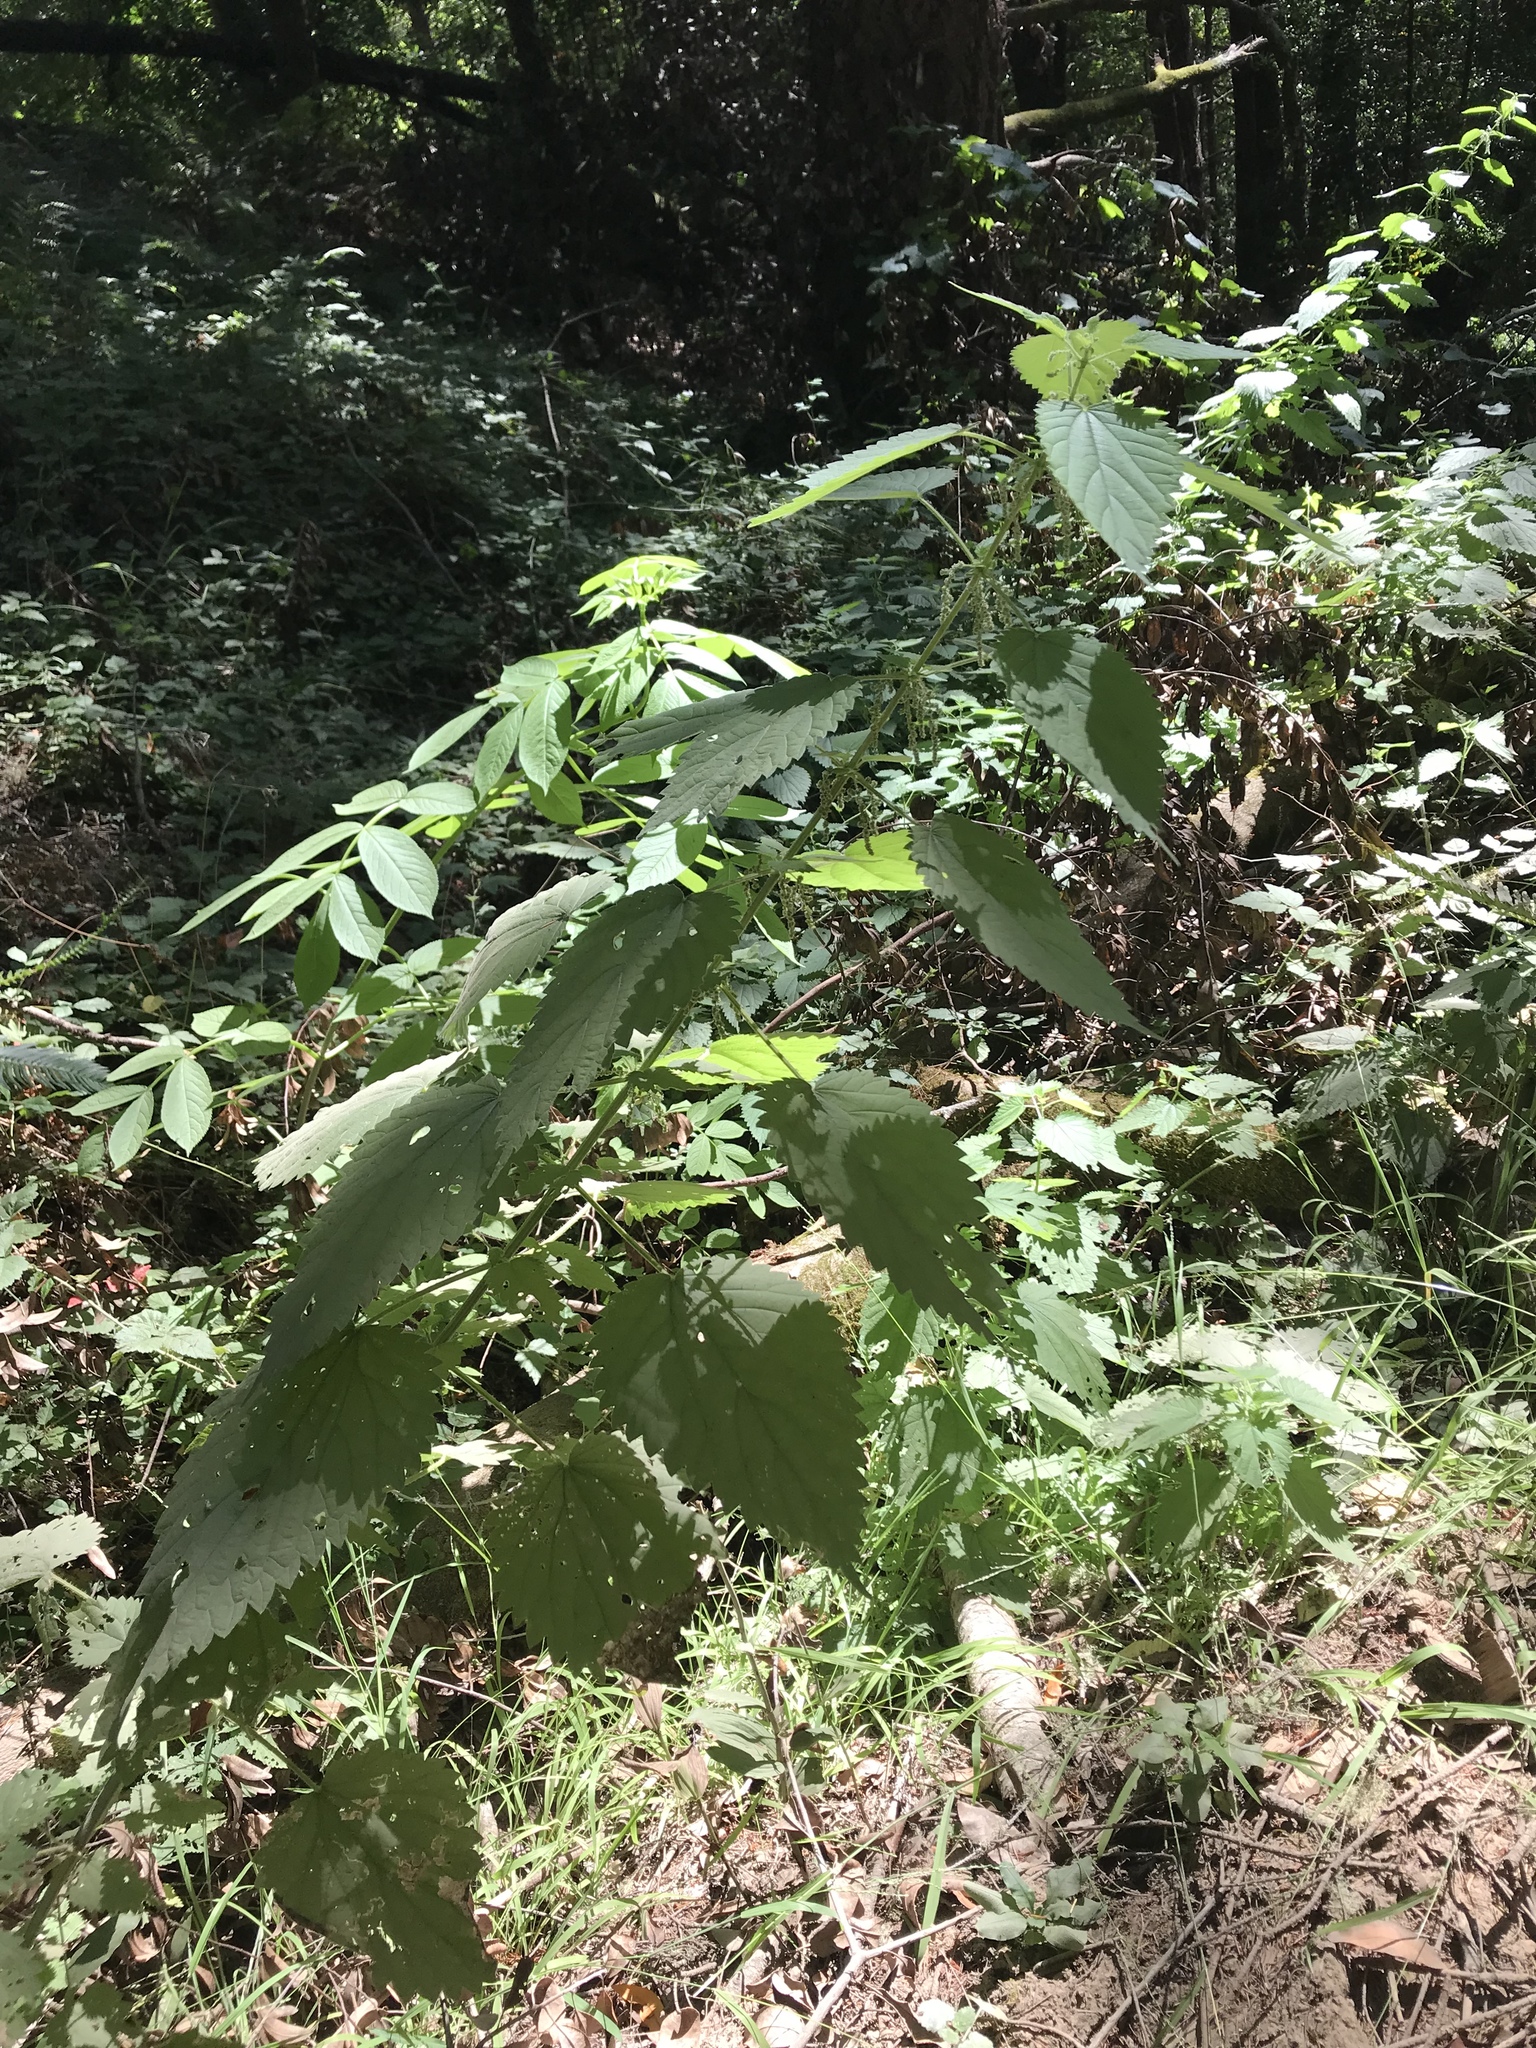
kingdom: Plantae
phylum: Tracheophyta
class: Magnoliopsida
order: Rosales
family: Urticaceae
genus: Urtica
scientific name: Urtica dioica
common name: Common nettle
